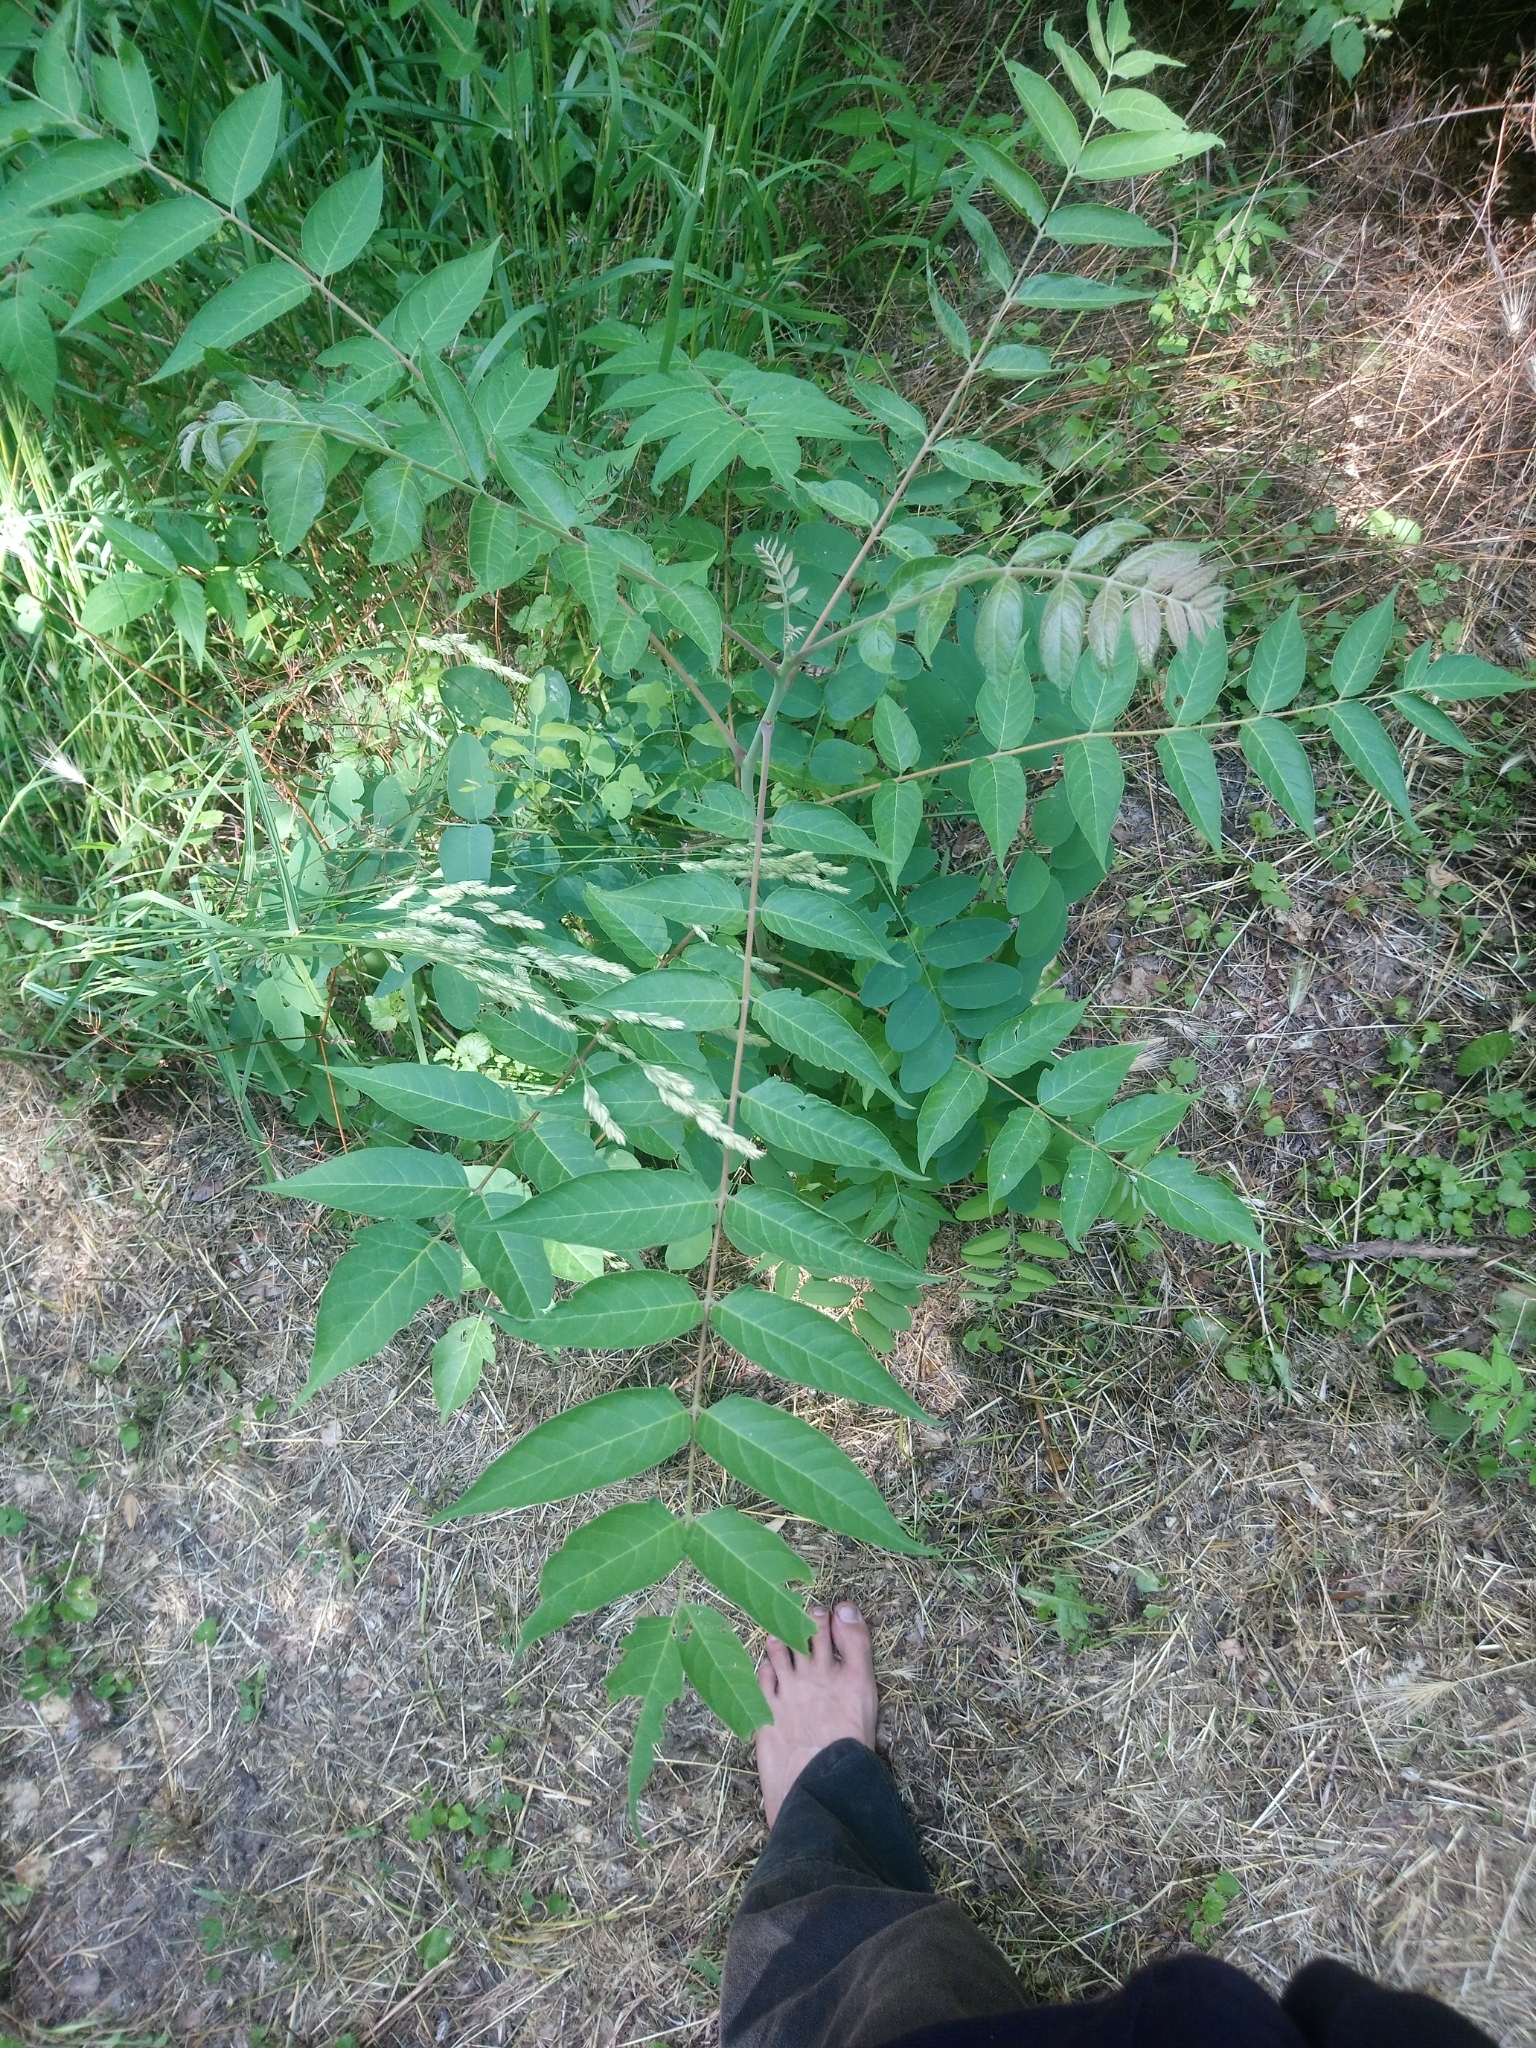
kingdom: Plantae
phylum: Tracheophyta
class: Magnoliopsida
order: Sapindales
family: Simaroubaceae
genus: Ailanthus
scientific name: Ailanthus altissima
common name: Tree-of-heaven
